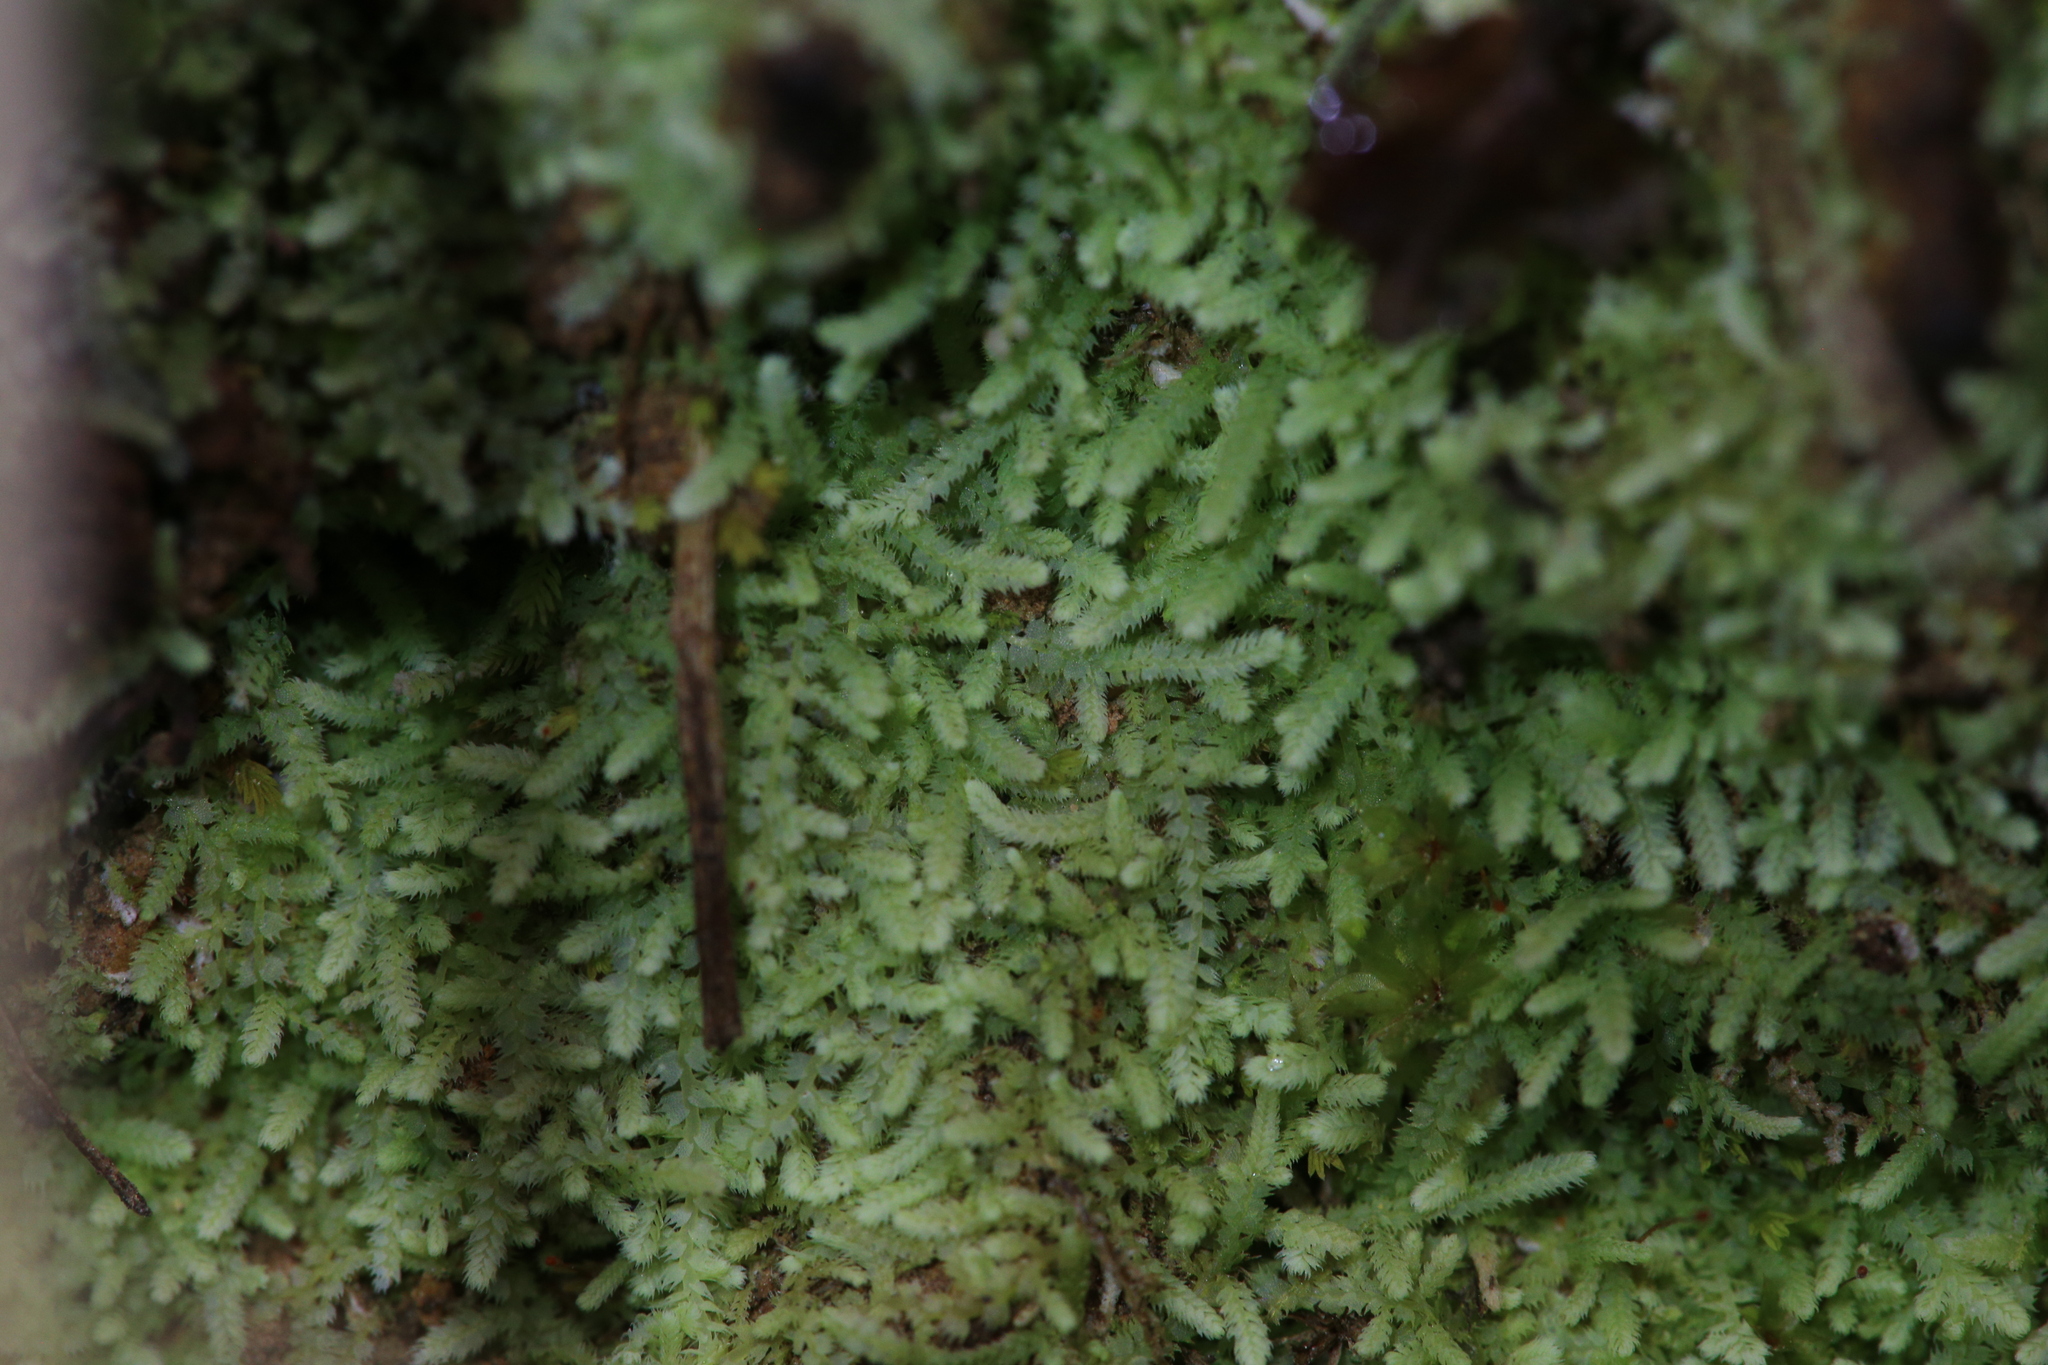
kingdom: Plantae
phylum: Marchantiophyta
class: Jungermanniopsida
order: Jungermanniales
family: Lepidoziaceae
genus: Ceramanus
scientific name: Ceramanus centipes
